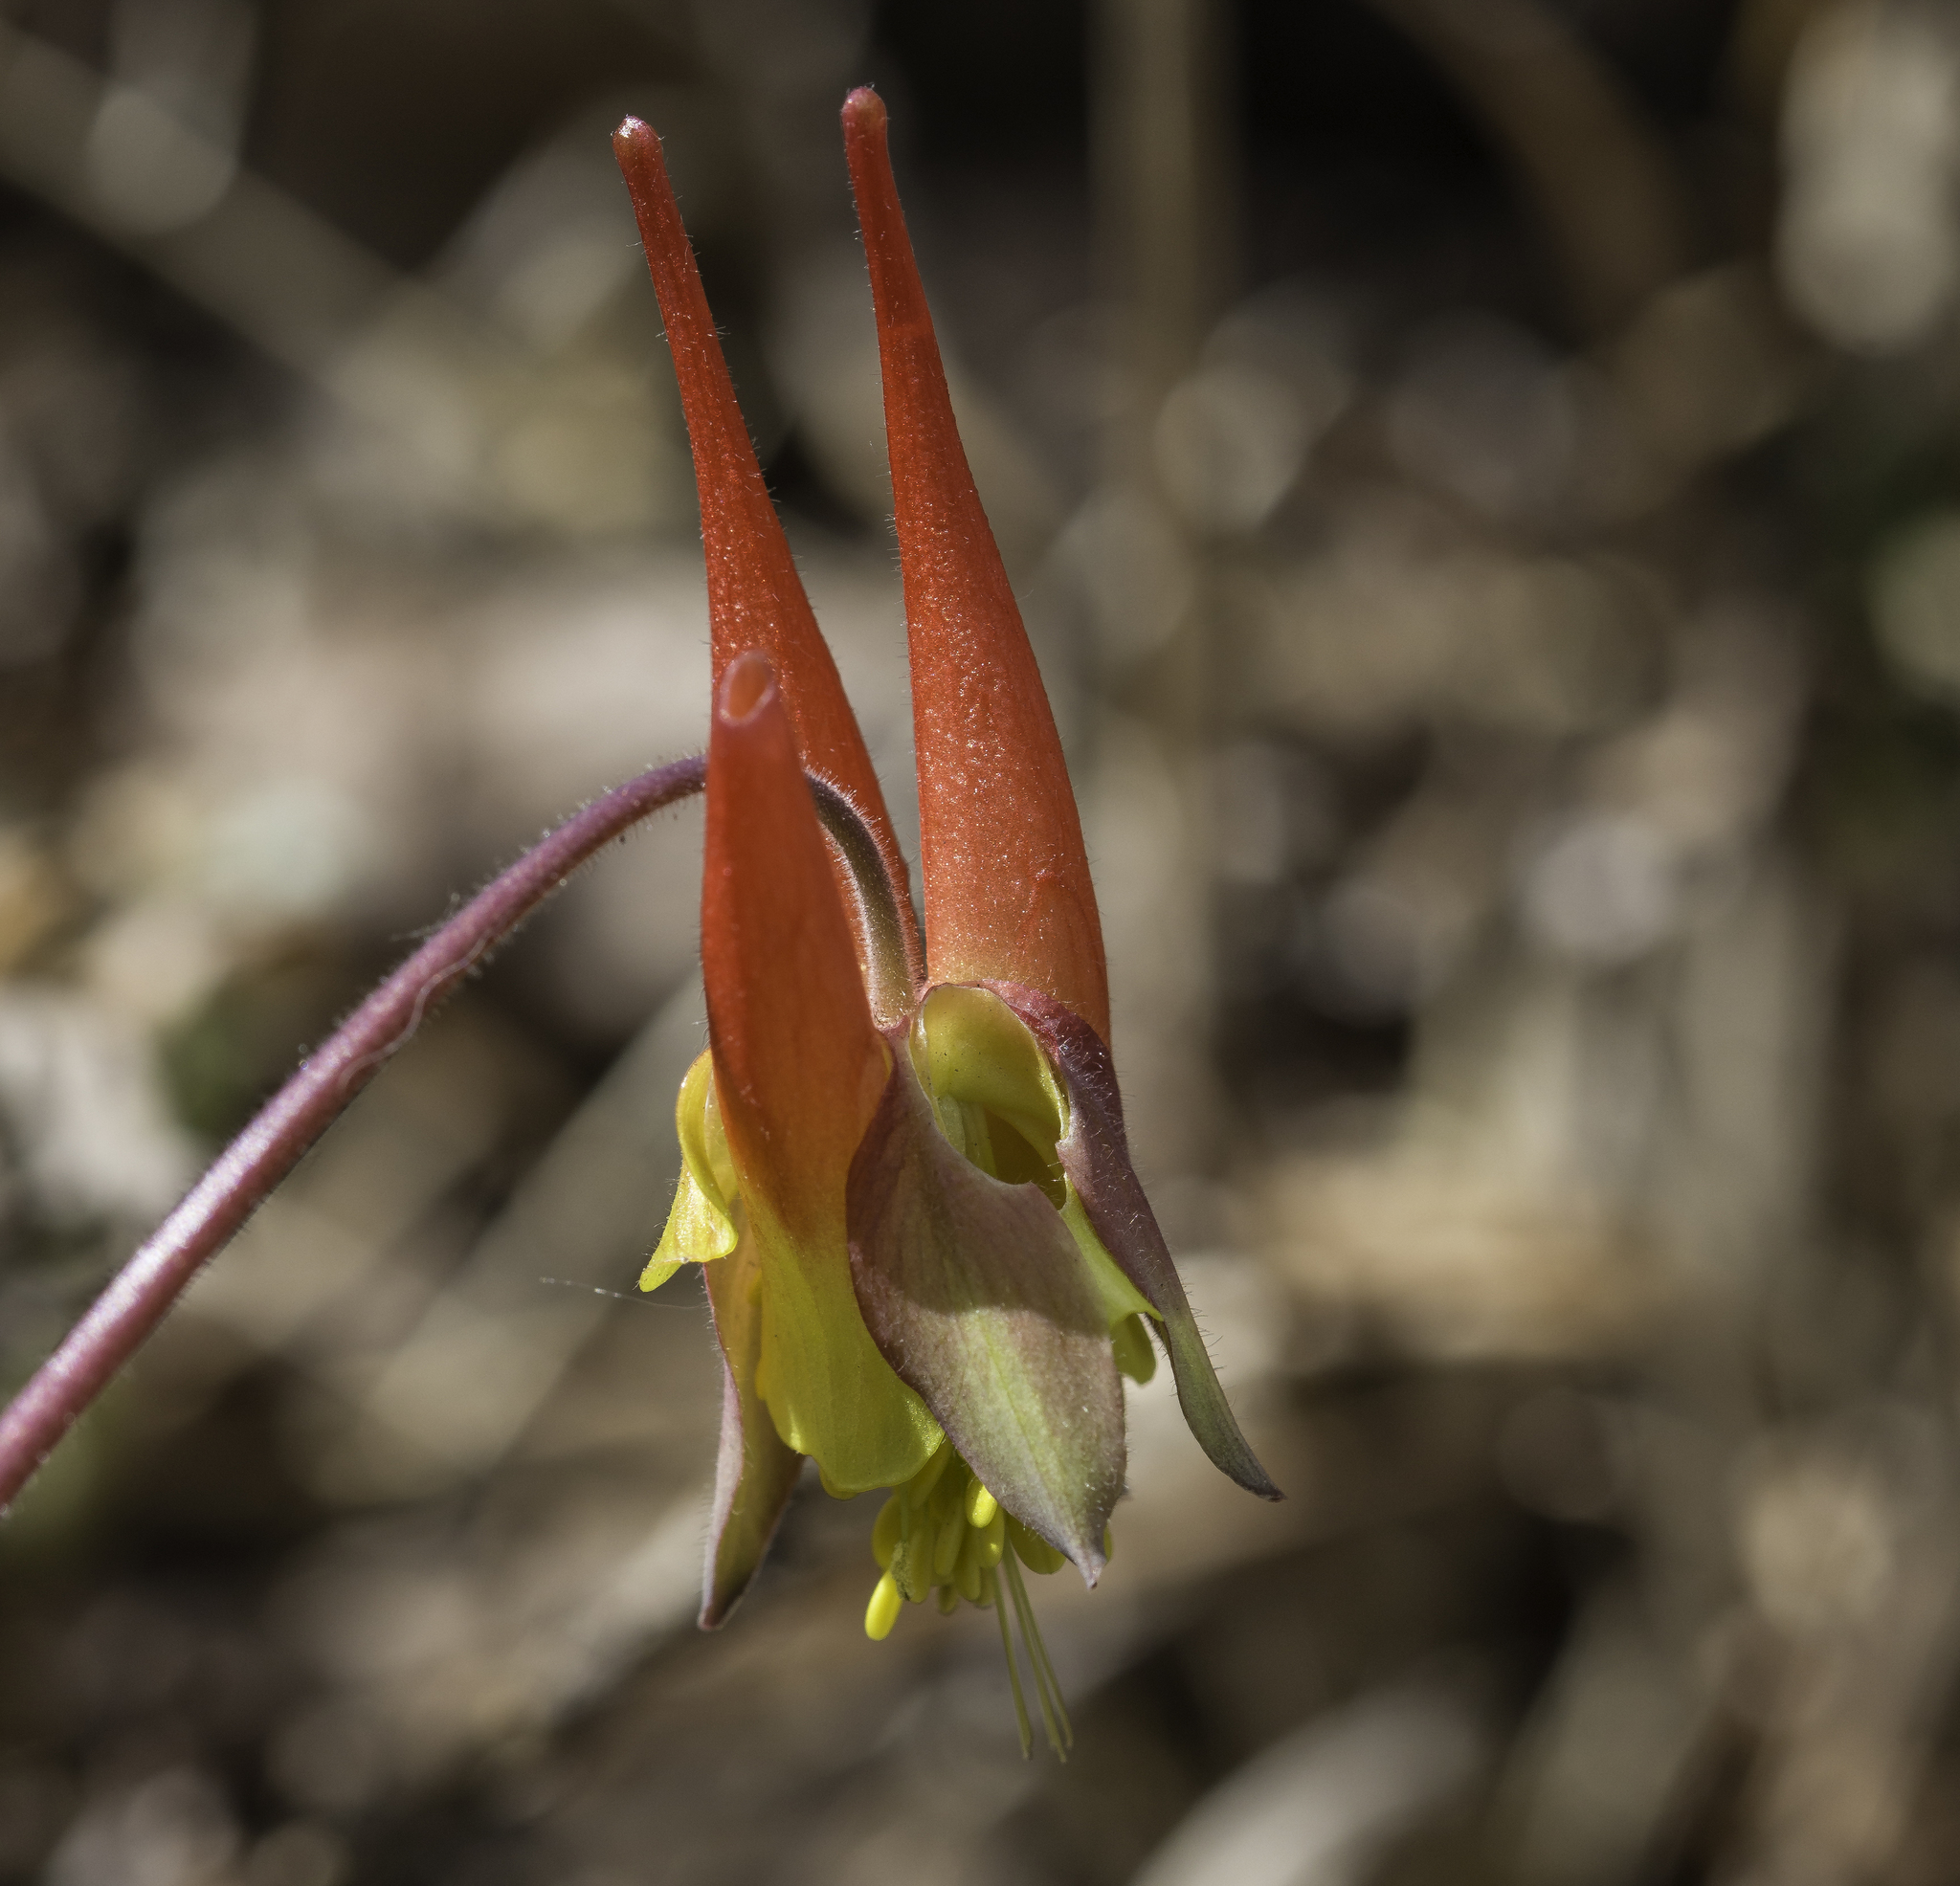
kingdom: Plantae
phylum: Tracheophyta
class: Magnoliopsida
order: Ranunculales
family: Ranunculaceae
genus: Aquilegia
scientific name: Aquilegia elegantula
